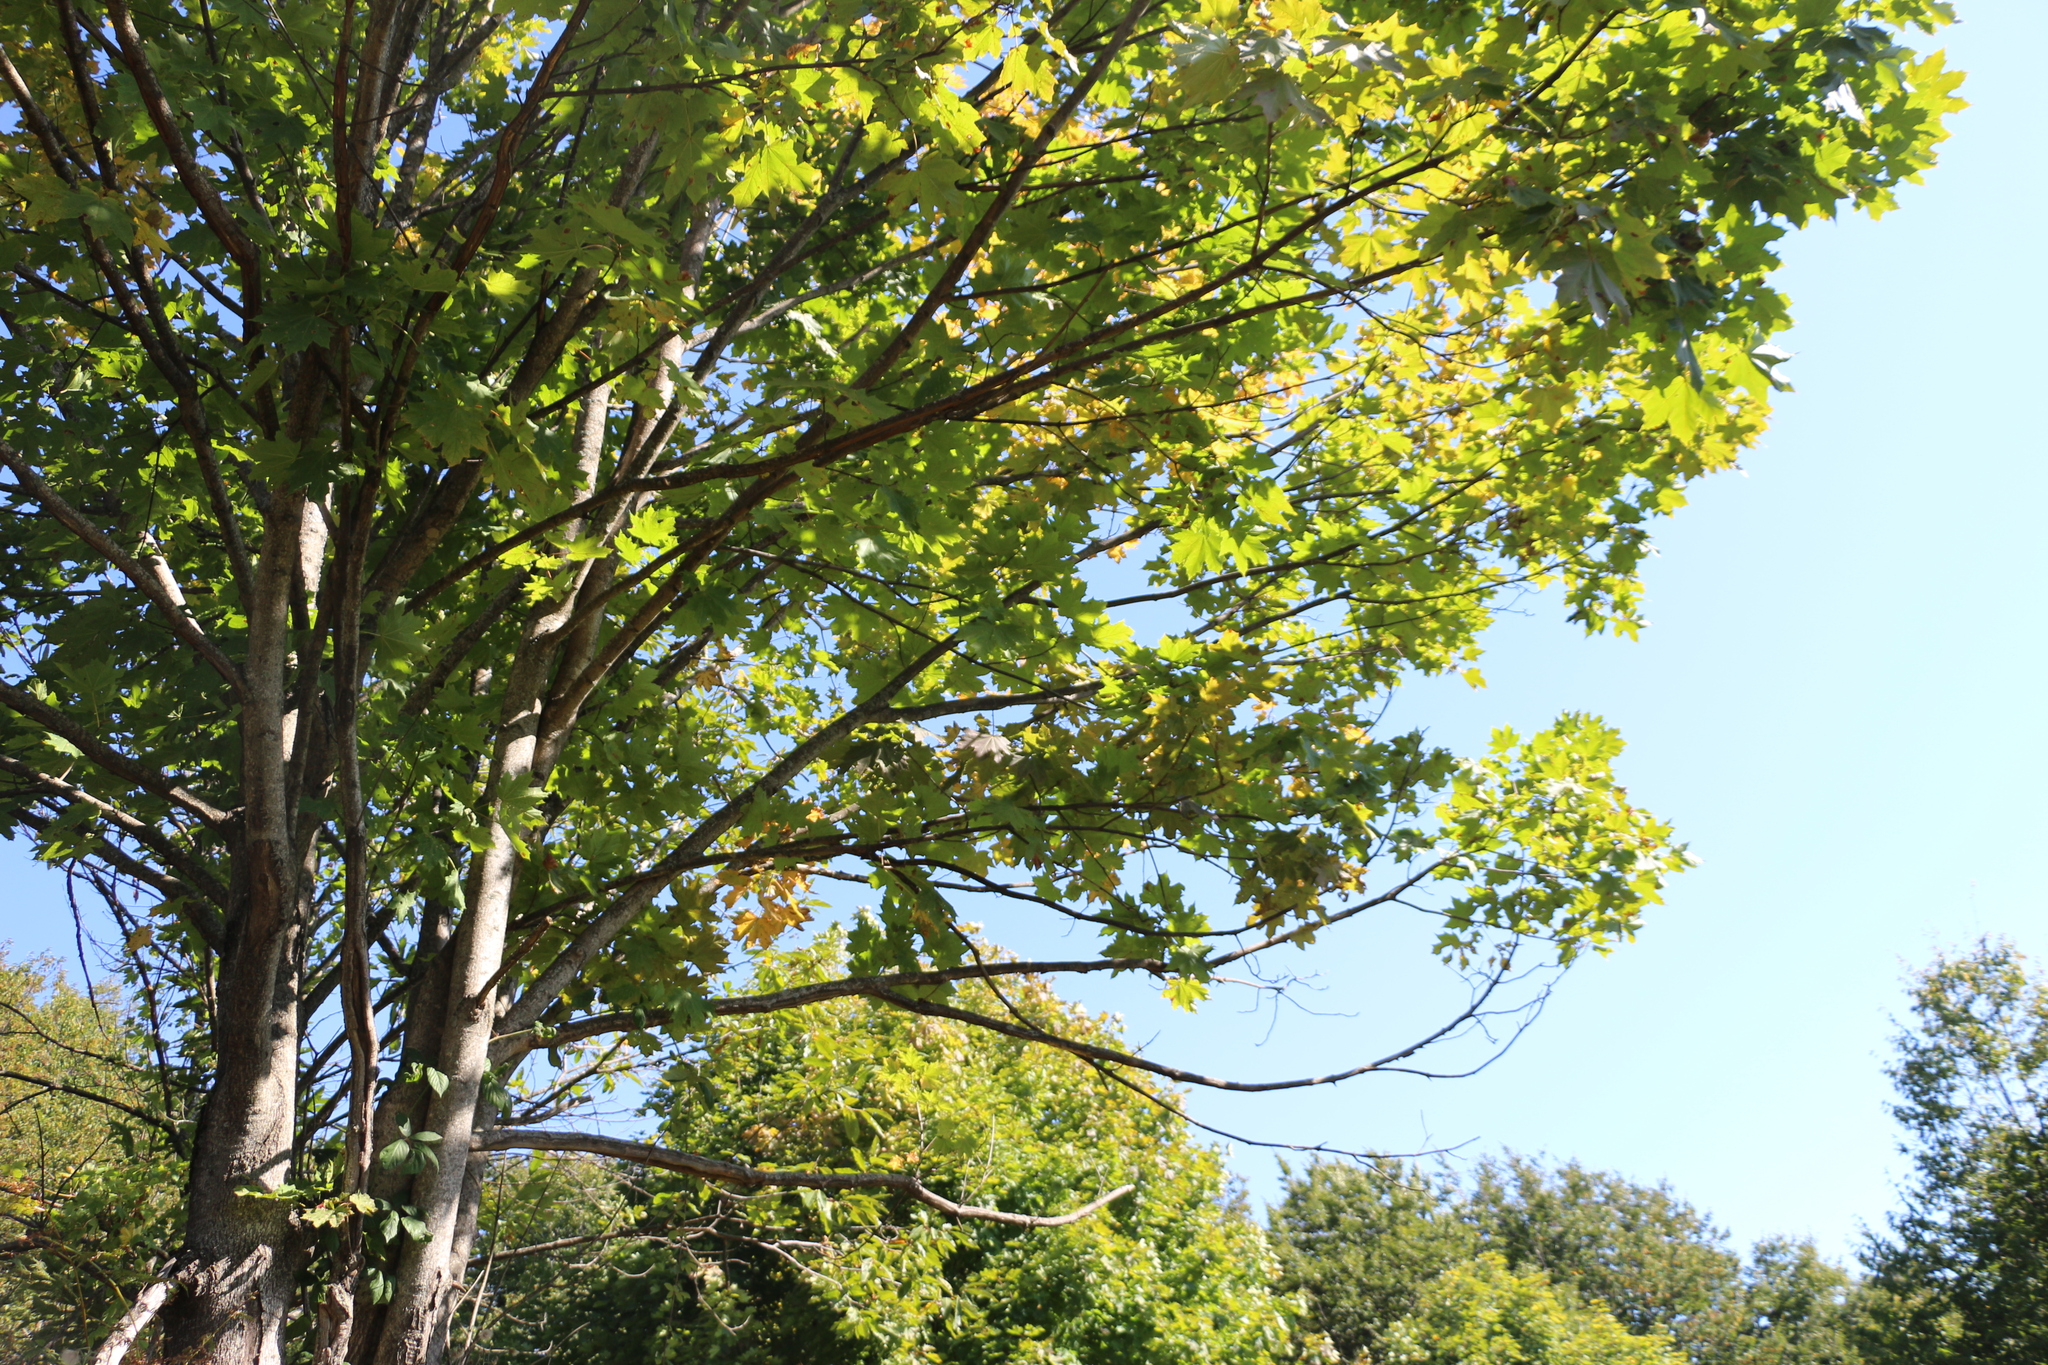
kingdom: Plantae
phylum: Tracheophyta
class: Magnoliopsida
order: Sapindales
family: Sapindaceae
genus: Acer
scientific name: Acer platanoides
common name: Norway maple
